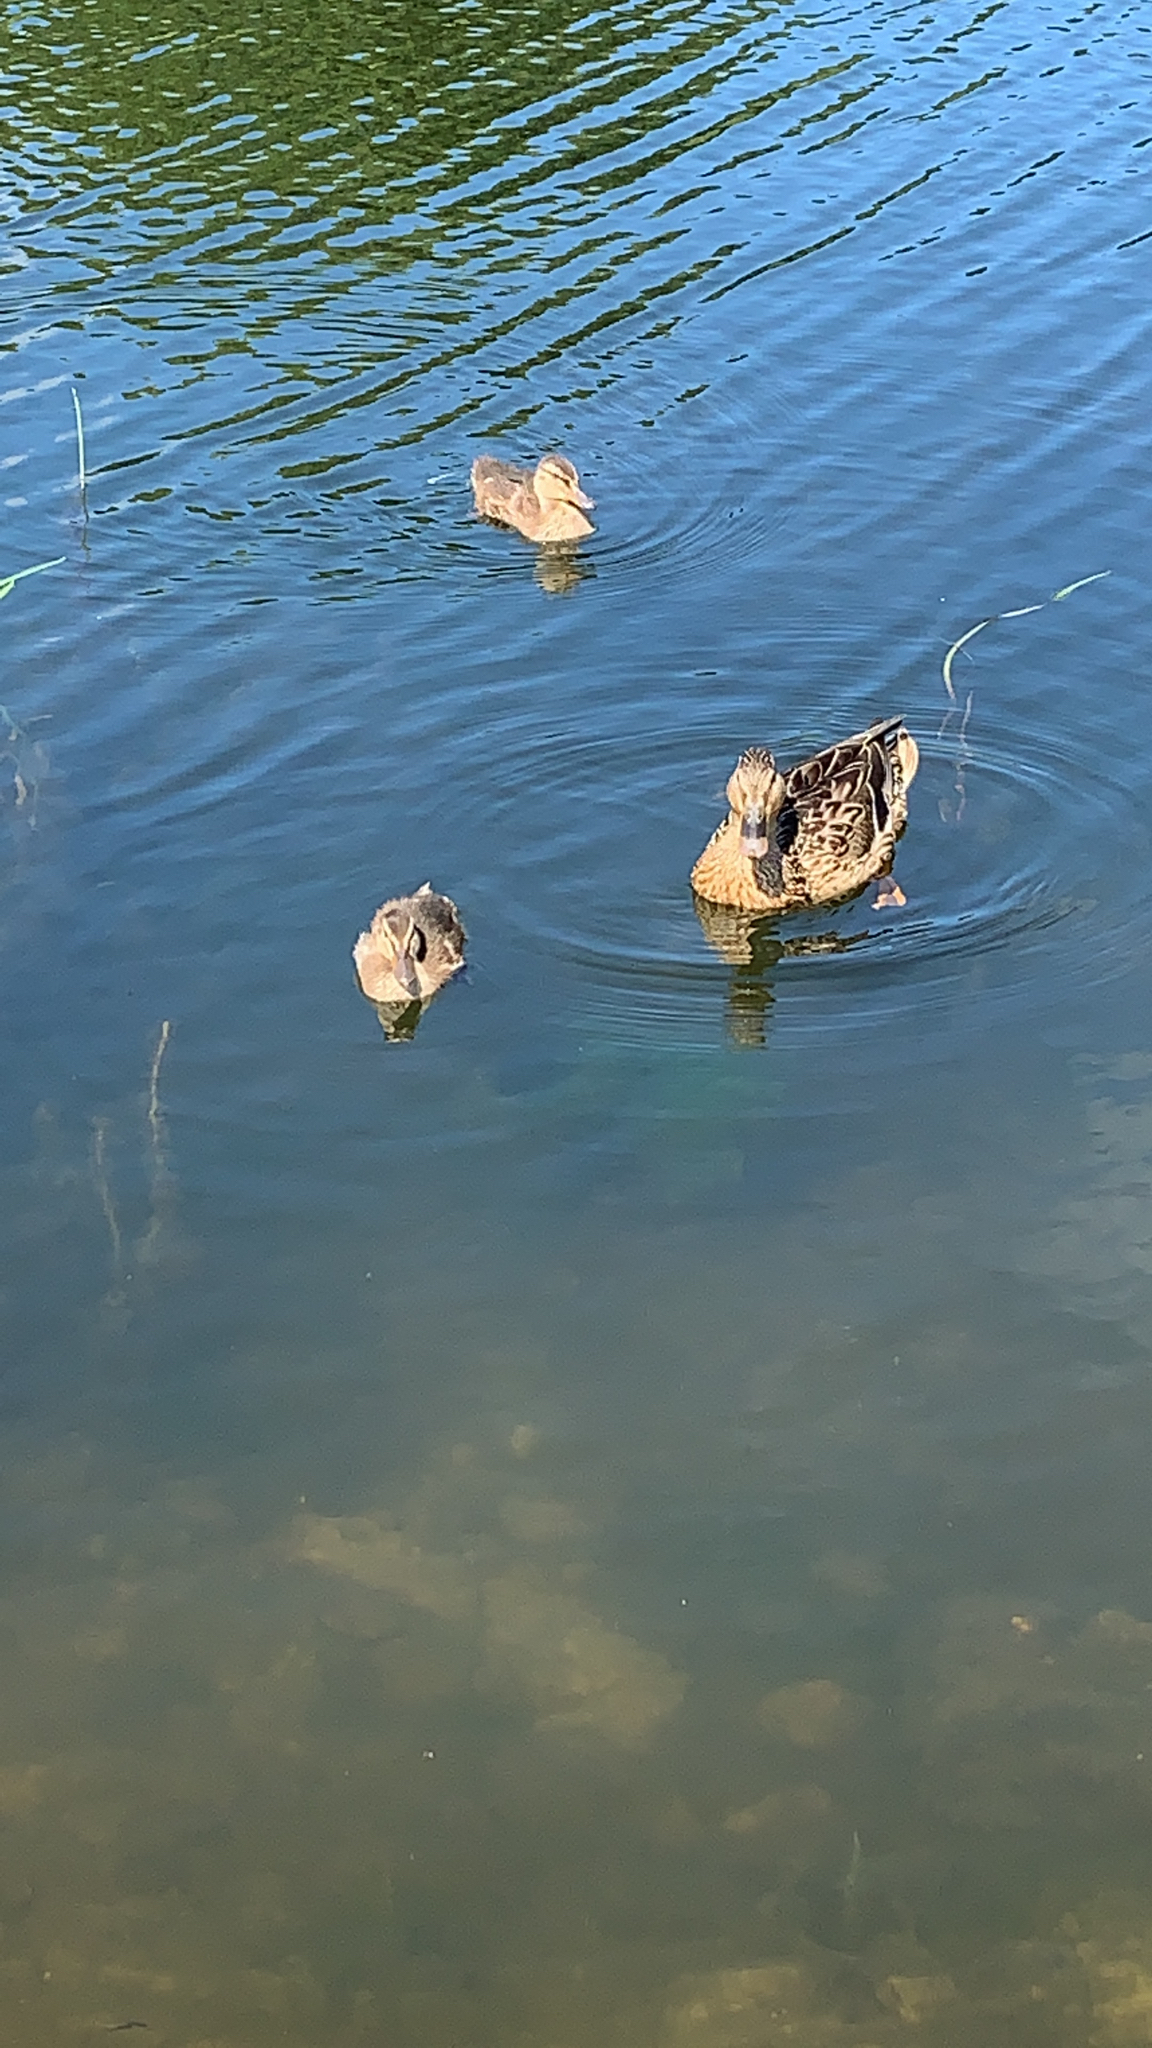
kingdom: Animalia
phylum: Chordata
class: Aves
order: Anseriformes
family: Anatidae
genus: Anas
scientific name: Anas platyrhynchos
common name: Mallard
